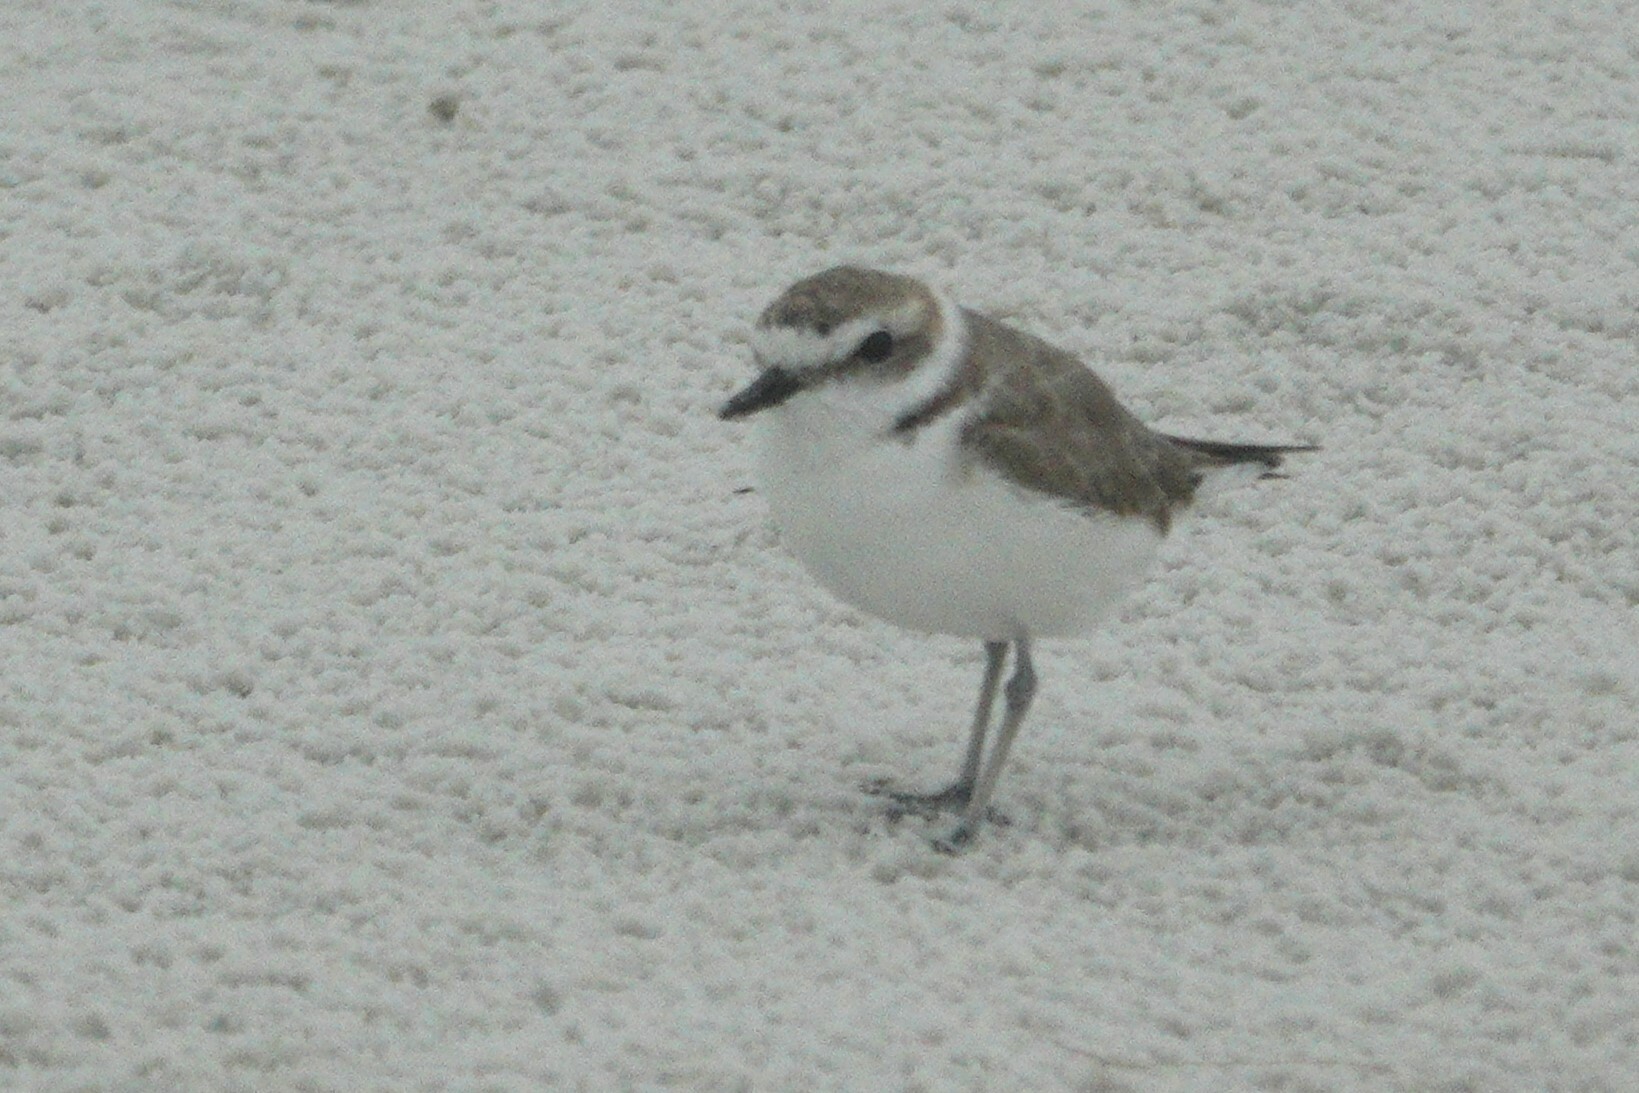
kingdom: Animalia
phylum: Chordata
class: Aves
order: Charadriiformes
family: Charadriidae
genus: Anarhynchus
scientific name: Anarhynchus
